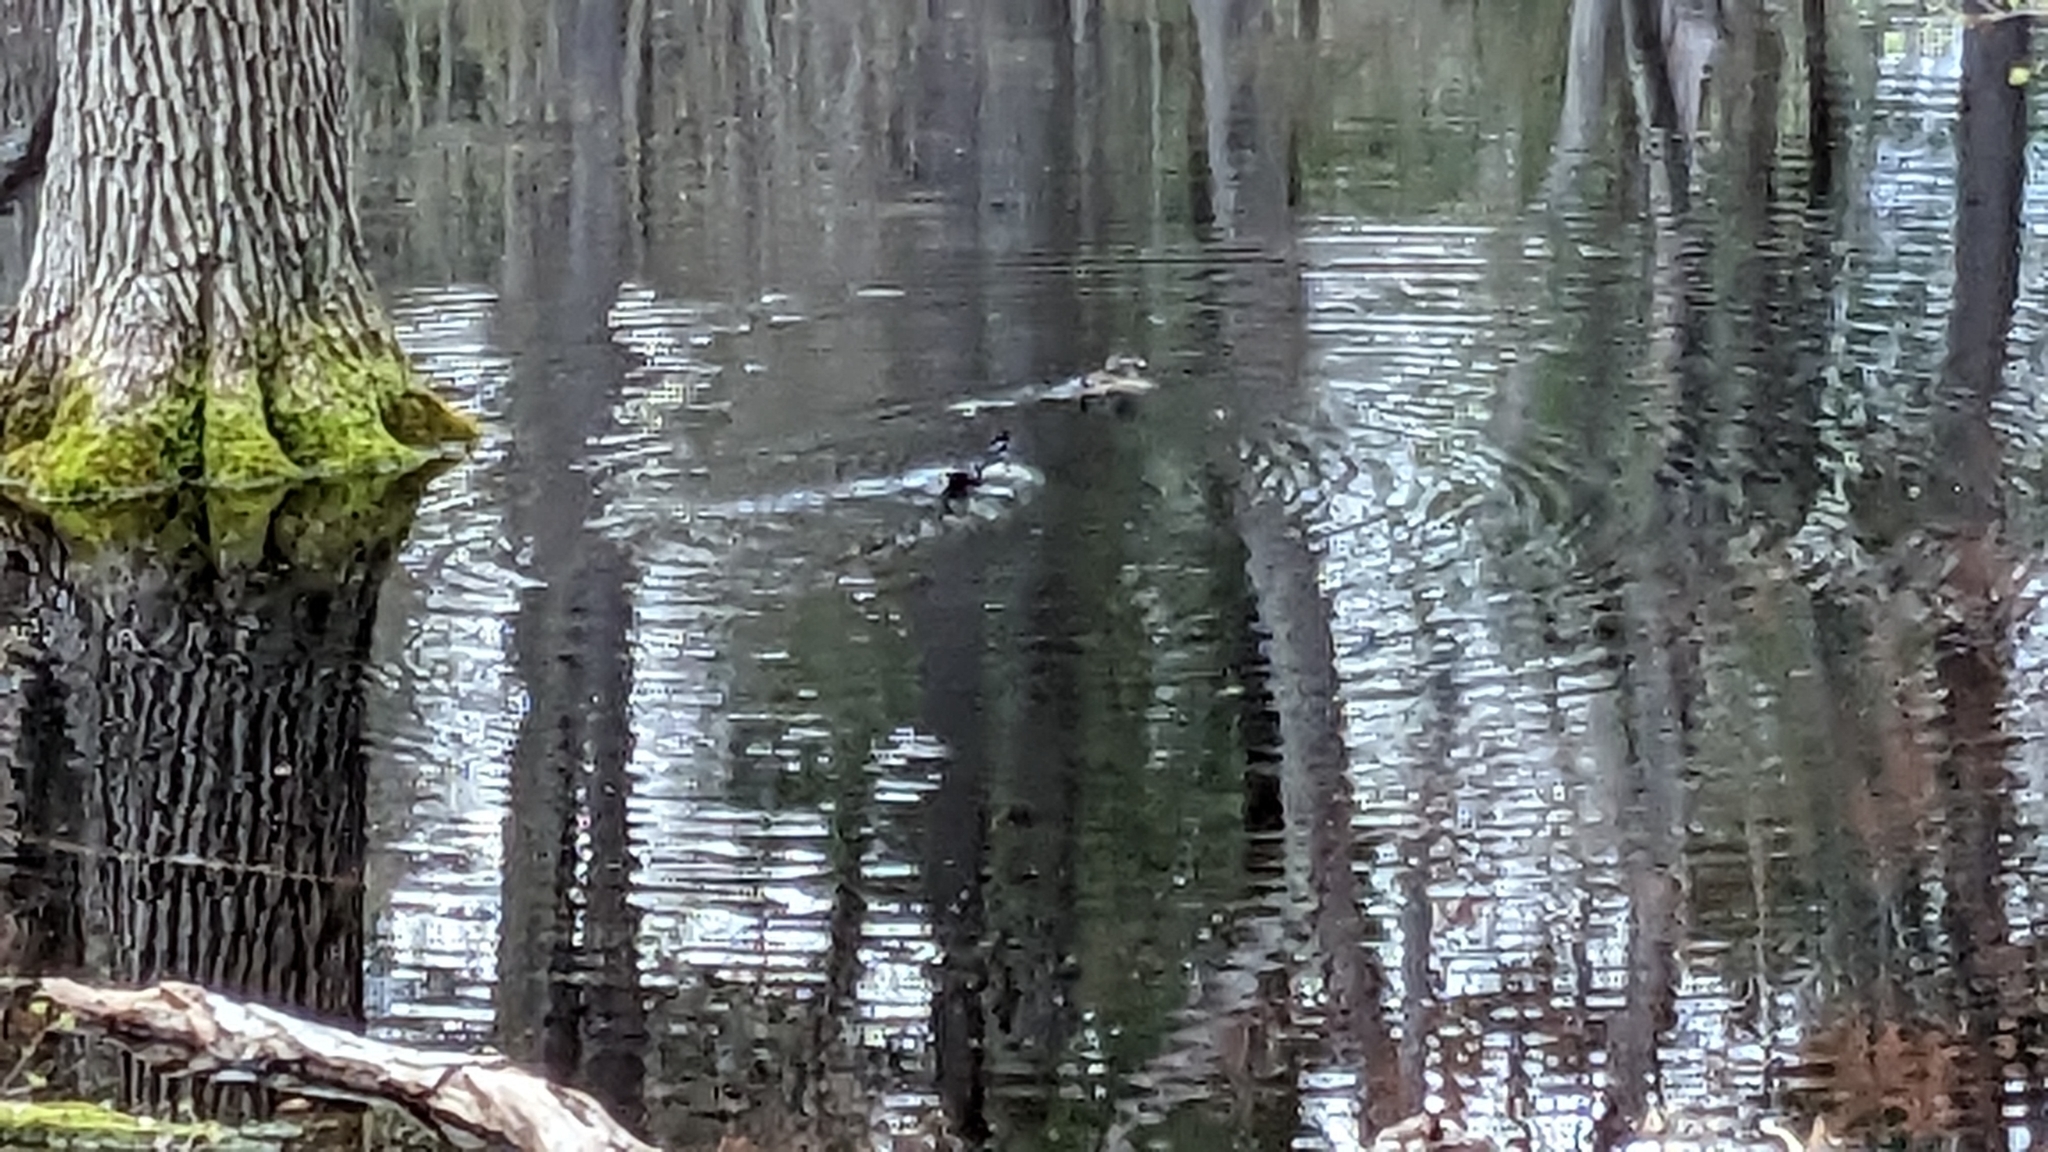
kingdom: Animalia
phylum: Chordata
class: Aves
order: Anseriformes
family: Anatidae
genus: Aix
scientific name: Aix sponsa
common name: Wood duck
